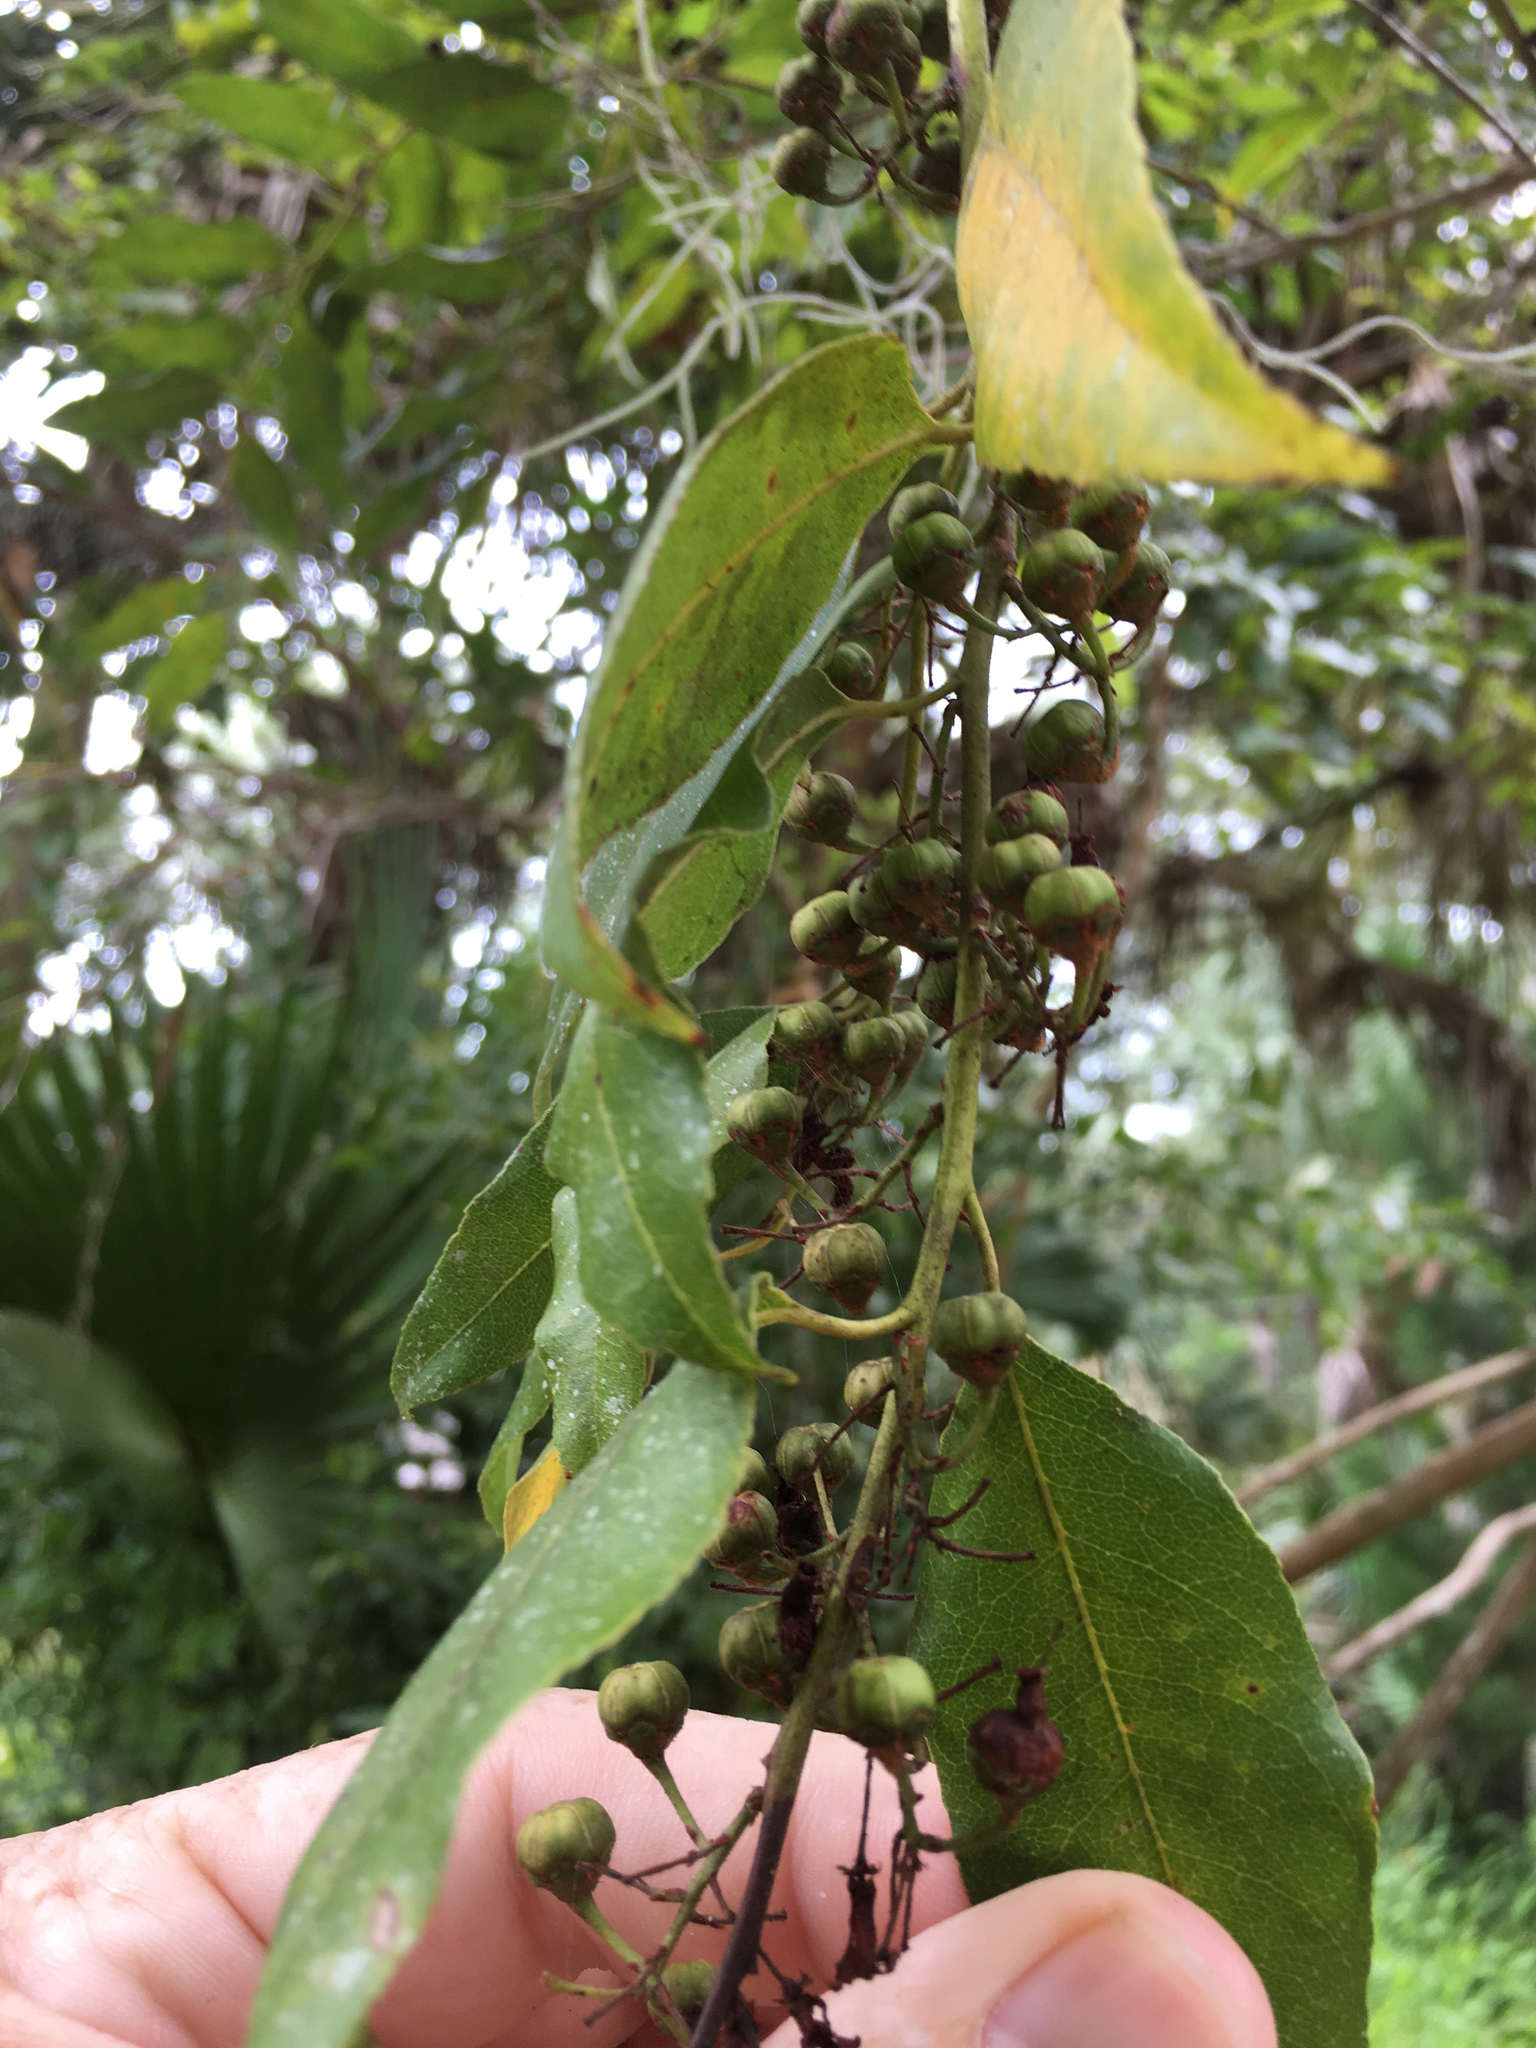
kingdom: Plantae
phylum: Tracheophyta
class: Magnoliopsida
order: Ericales
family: Ericaceae
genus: Agarista
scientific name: Agarista populifolia
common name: Pipeplant
